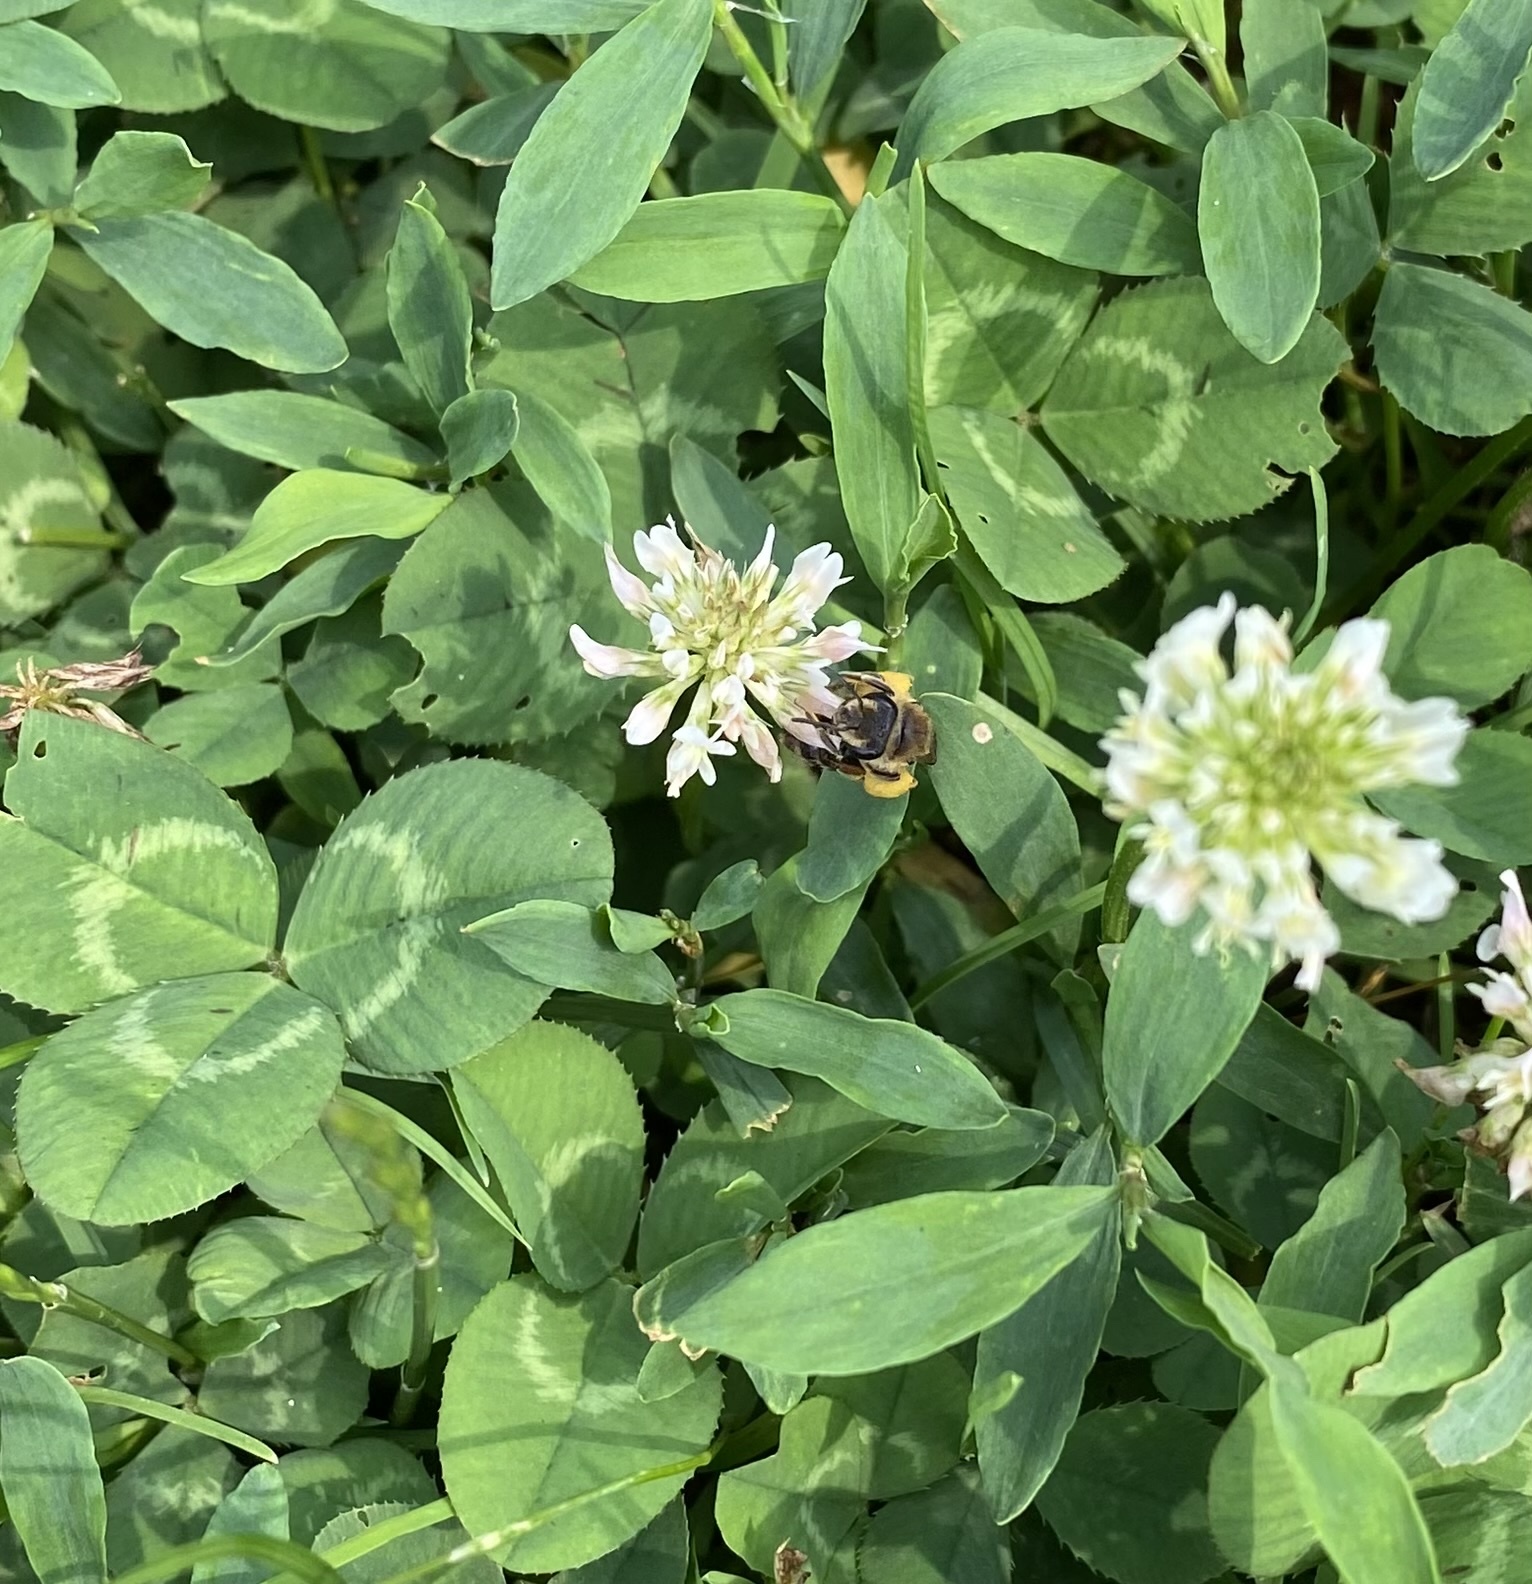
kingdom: Animalia
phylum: Arthropoda
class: Insecta
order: Hymenoptera
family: Andrenidae
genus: Andrena
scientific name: Andrena wilkella
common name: Wilke's mining bee
